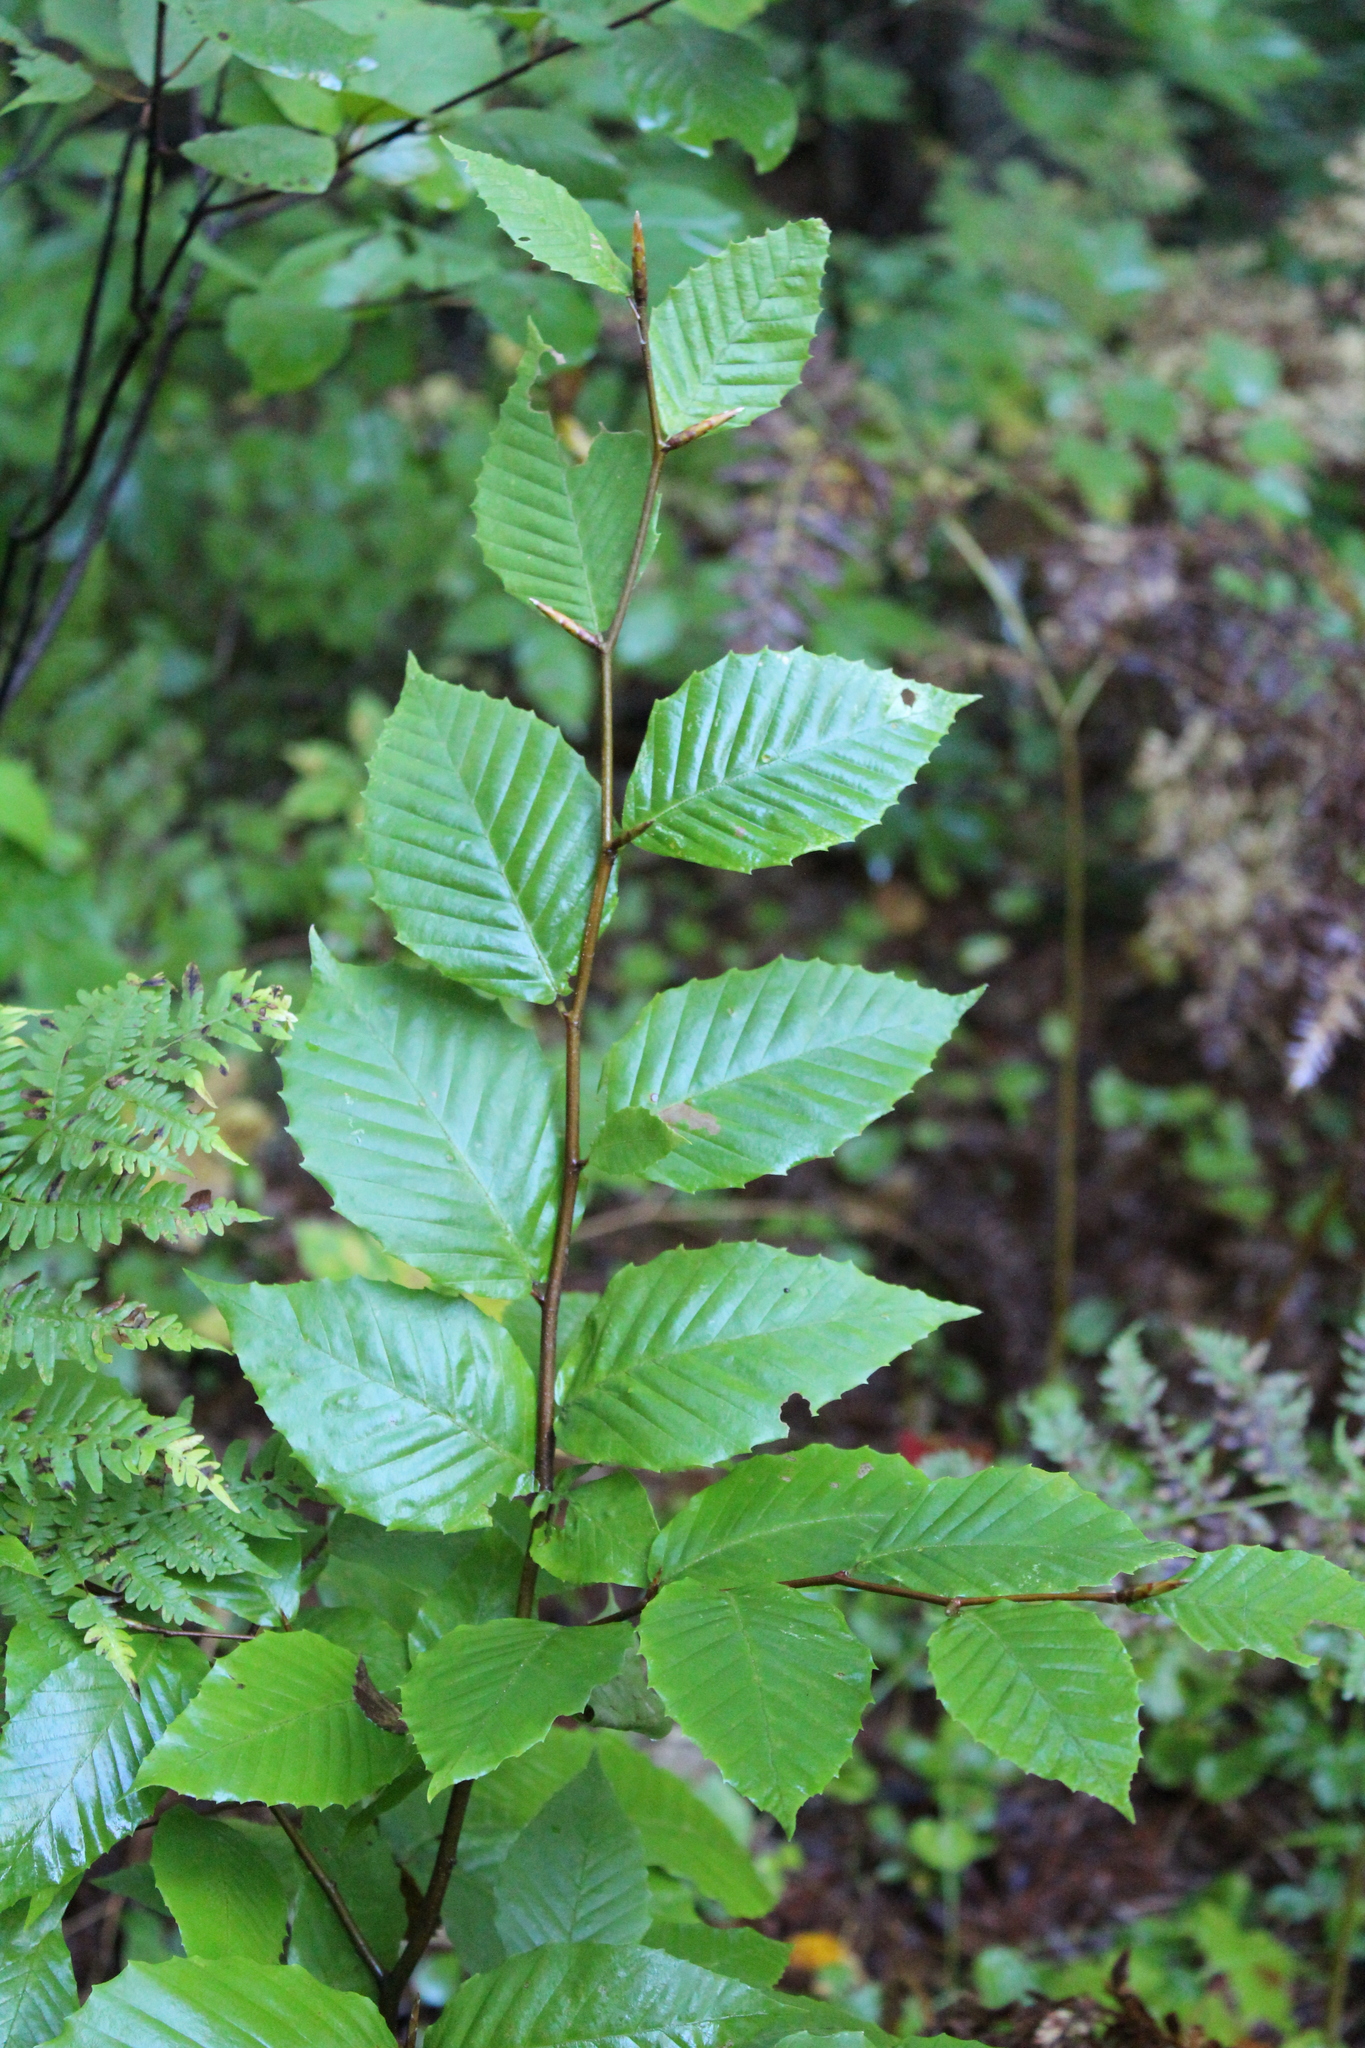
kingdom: Plantae
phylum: Tracheophyta
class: Magnoliopsida
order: Fagales
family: Fagaceae
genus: Fagus
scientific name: Fagus grandifolia
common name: American beech
